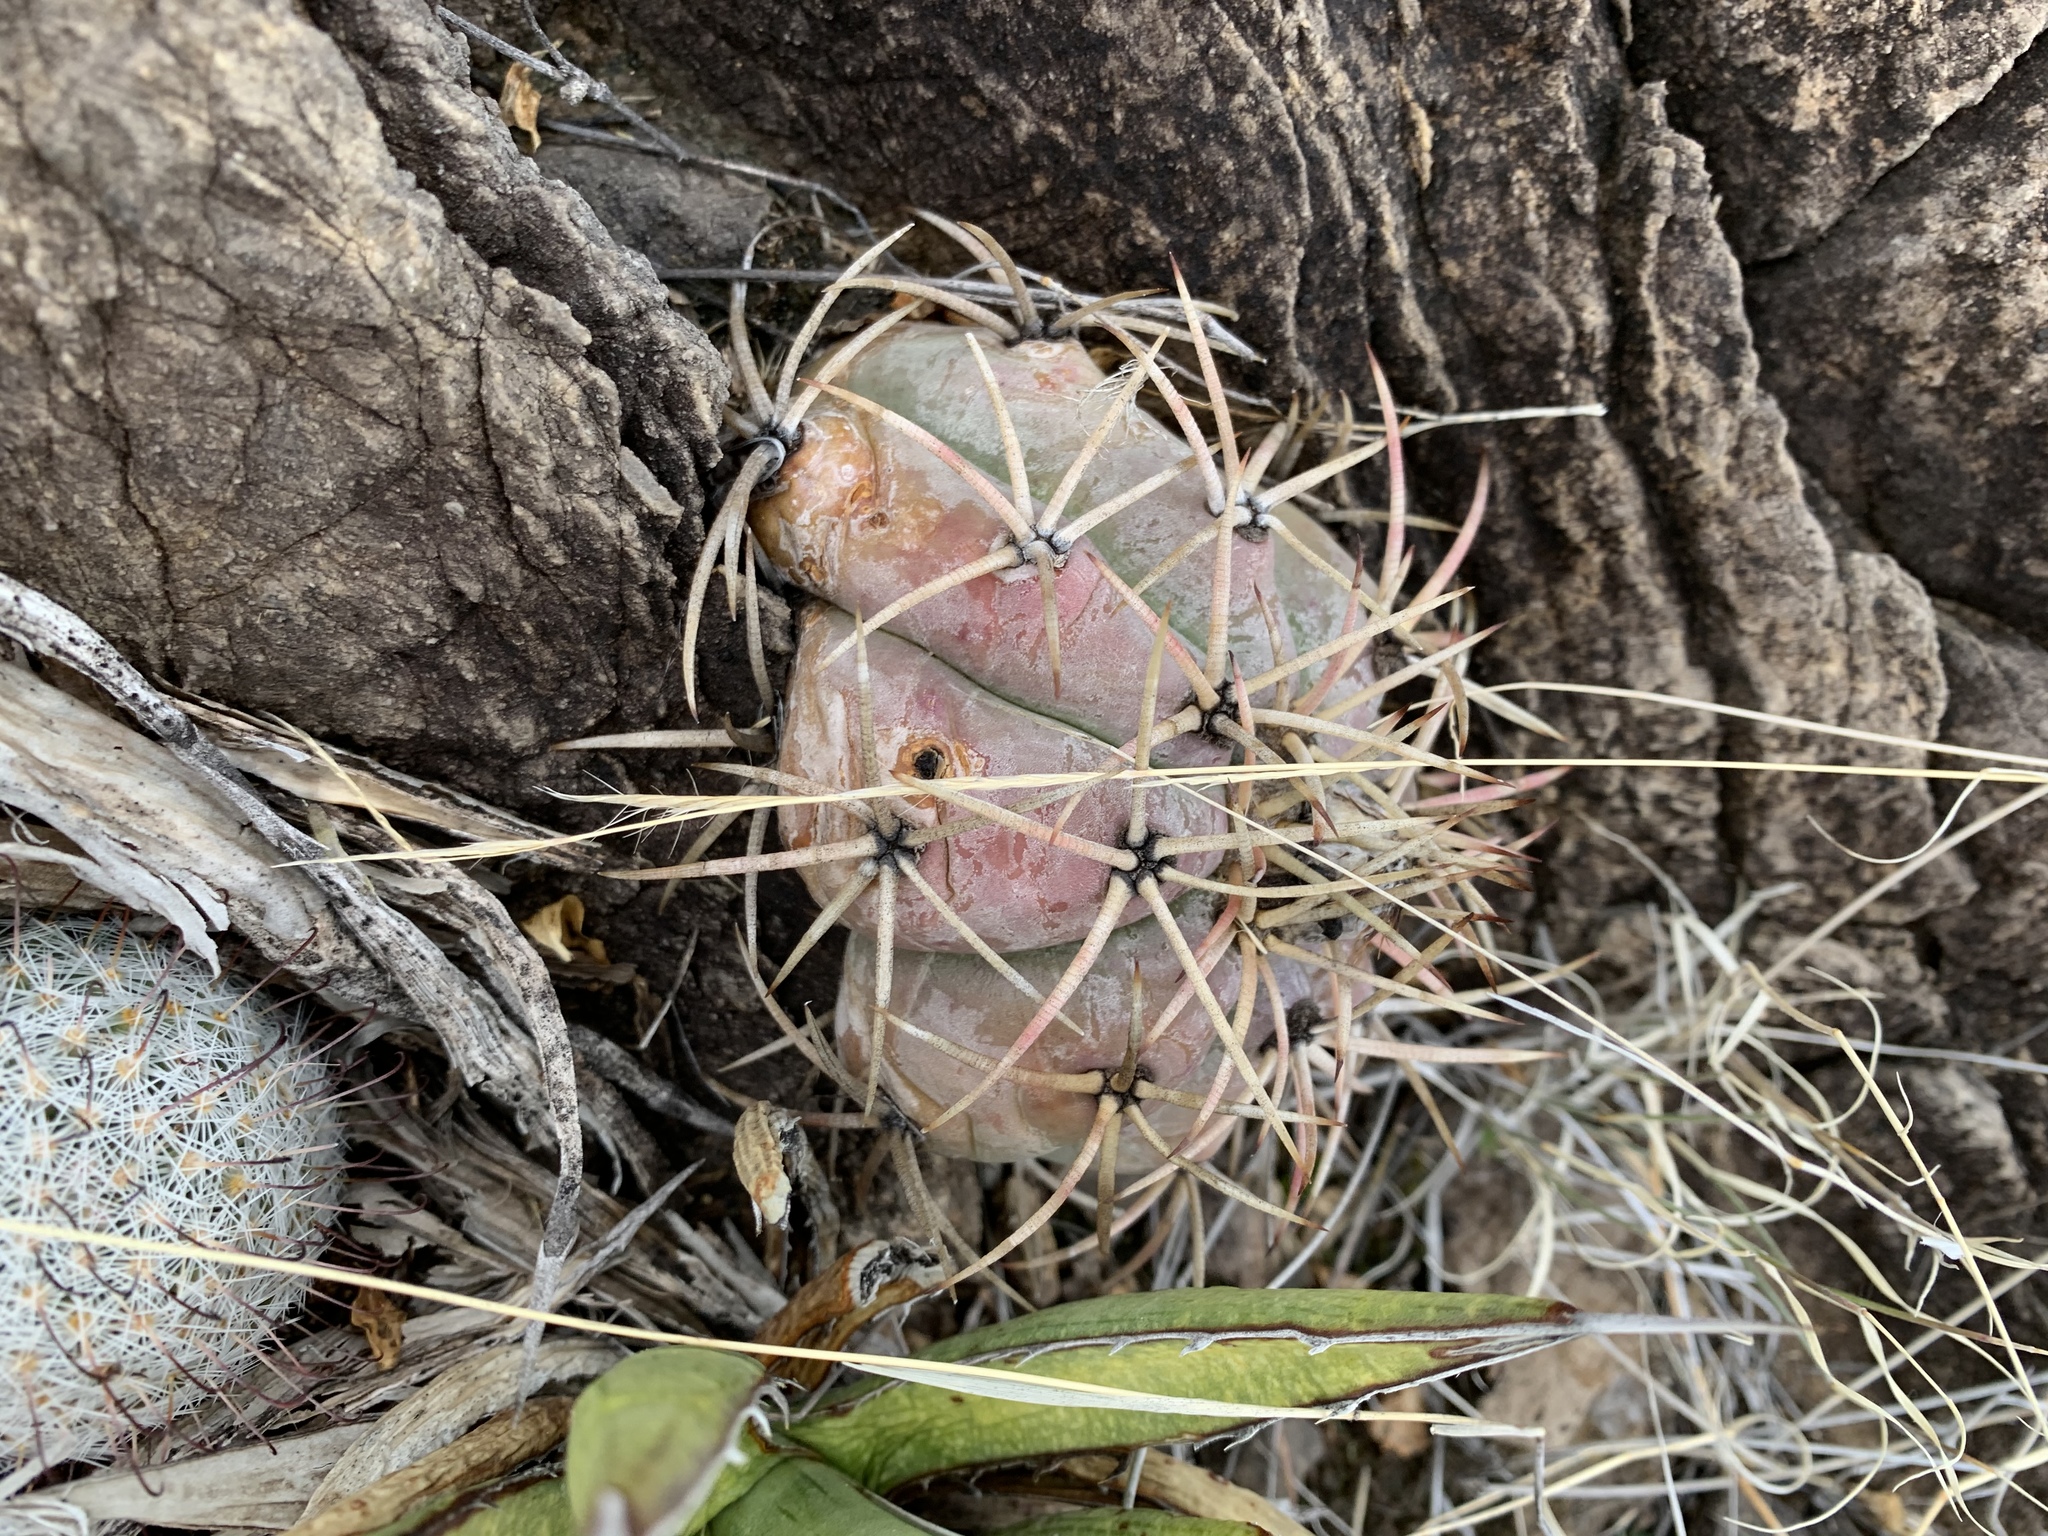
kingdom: Plantae
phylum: Tracheophyta
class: Magnoliopsida
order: Caryophyllales
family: Cactaceae
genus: Echinocactus
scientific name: Echinocactus horizonthalonius
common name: Devilshead
